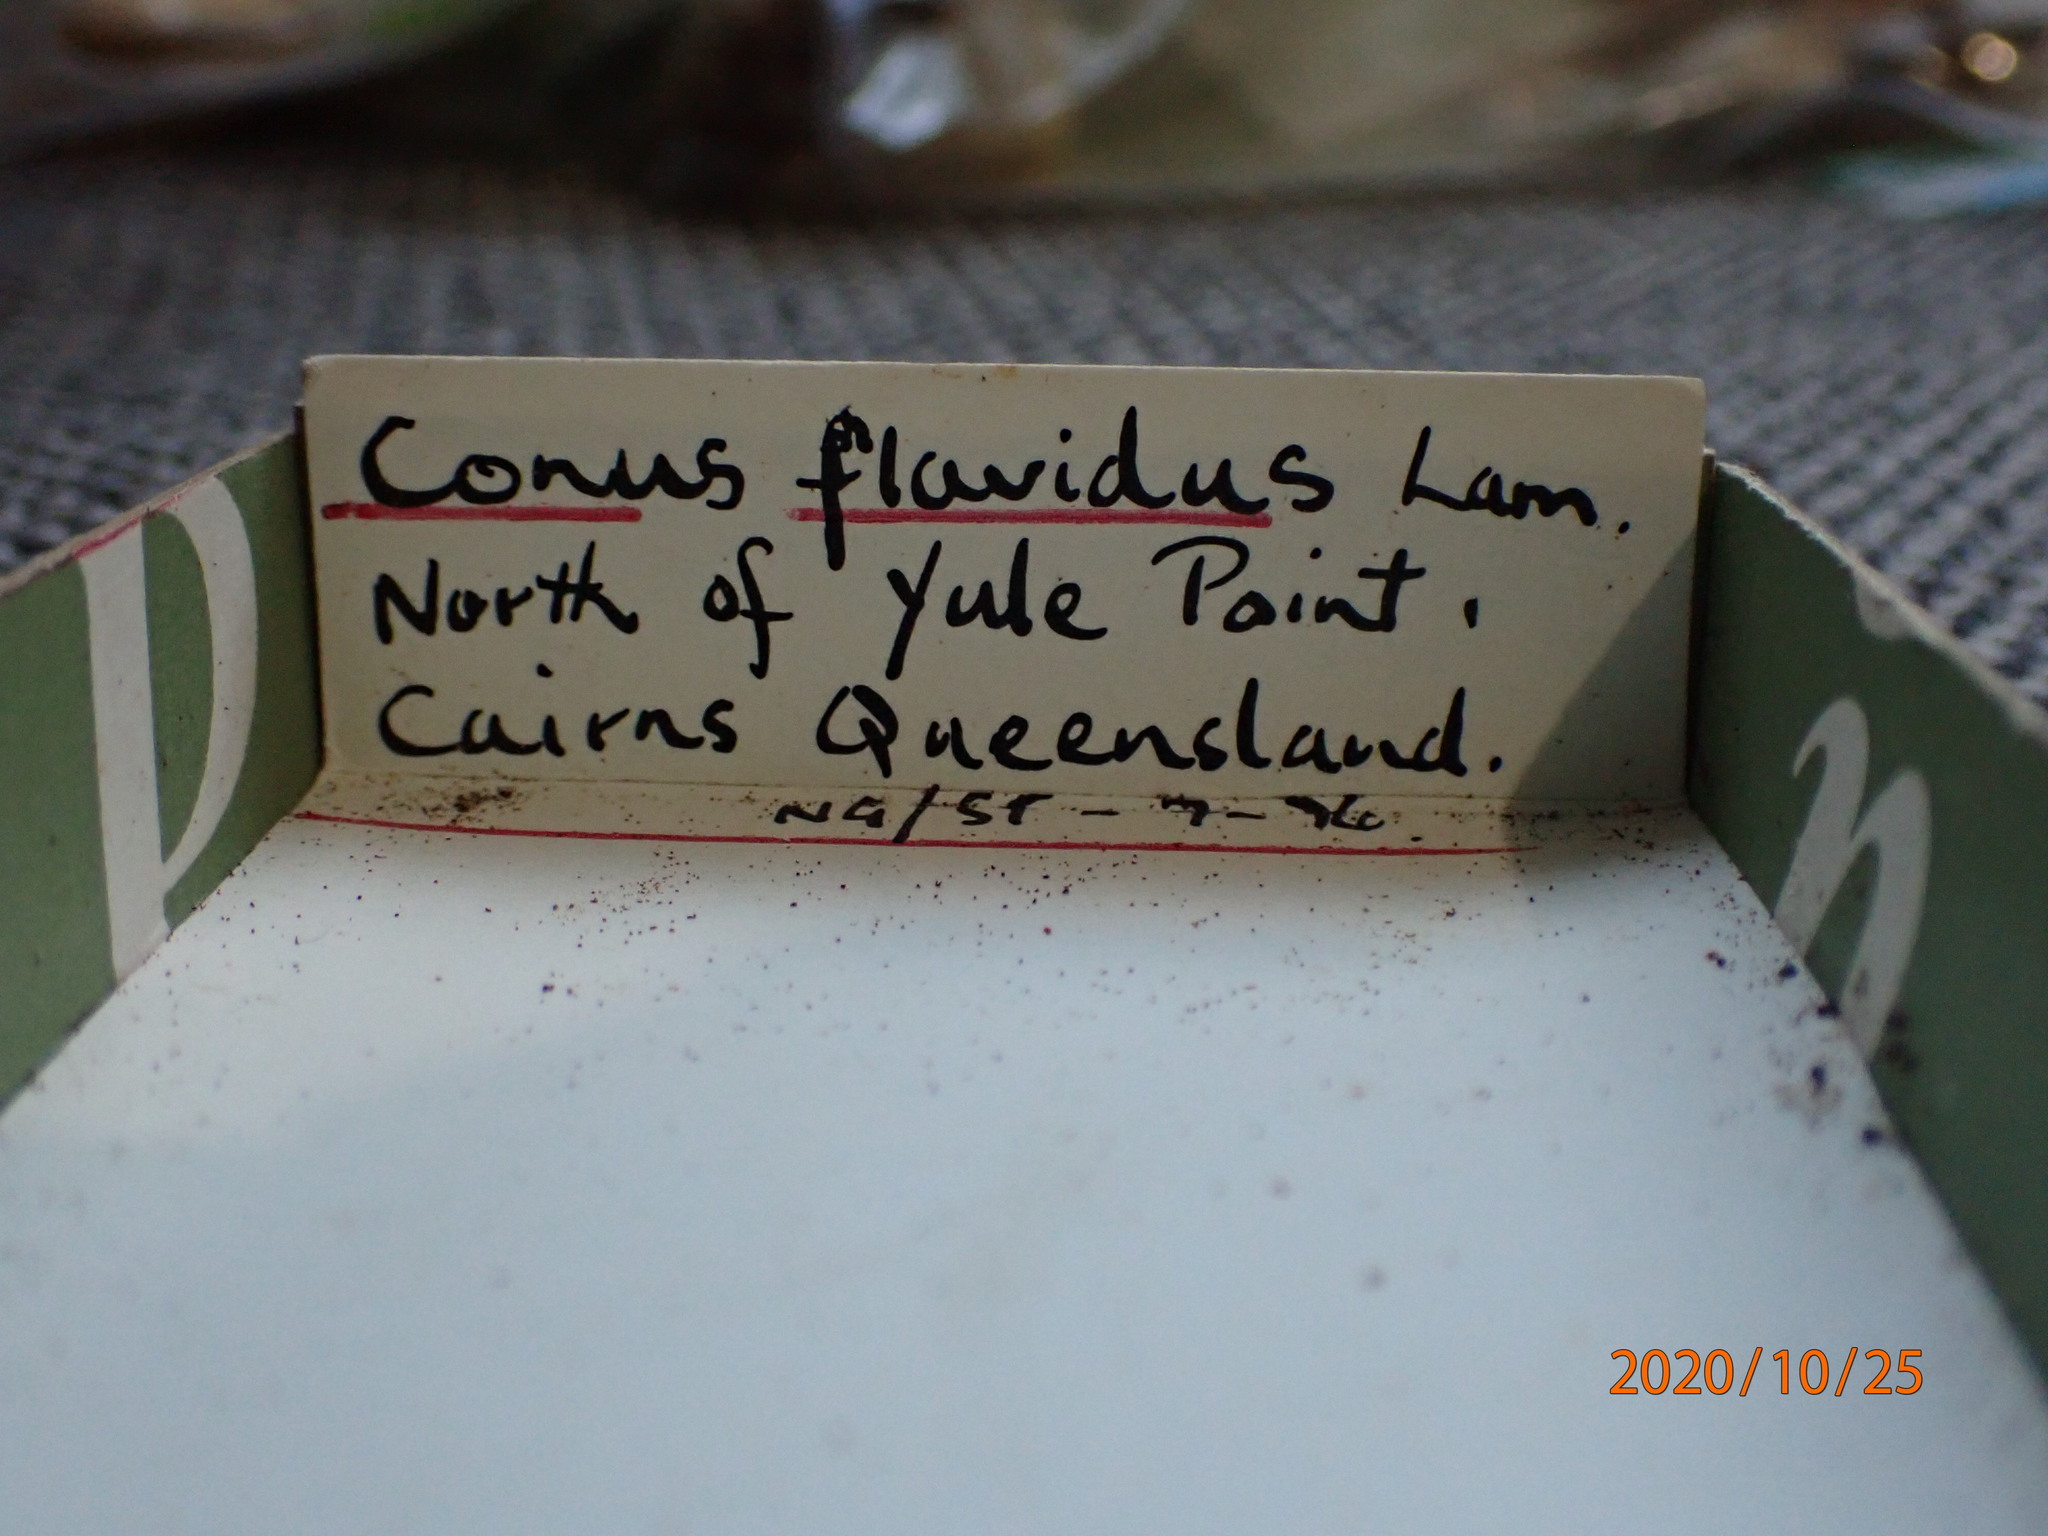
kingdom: Animalia
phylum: Mollusca
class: Gastropoda
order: Neogastropoda
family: Conidae
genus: Conus
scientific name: Conus flavidus
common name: Golden-yellow cone
